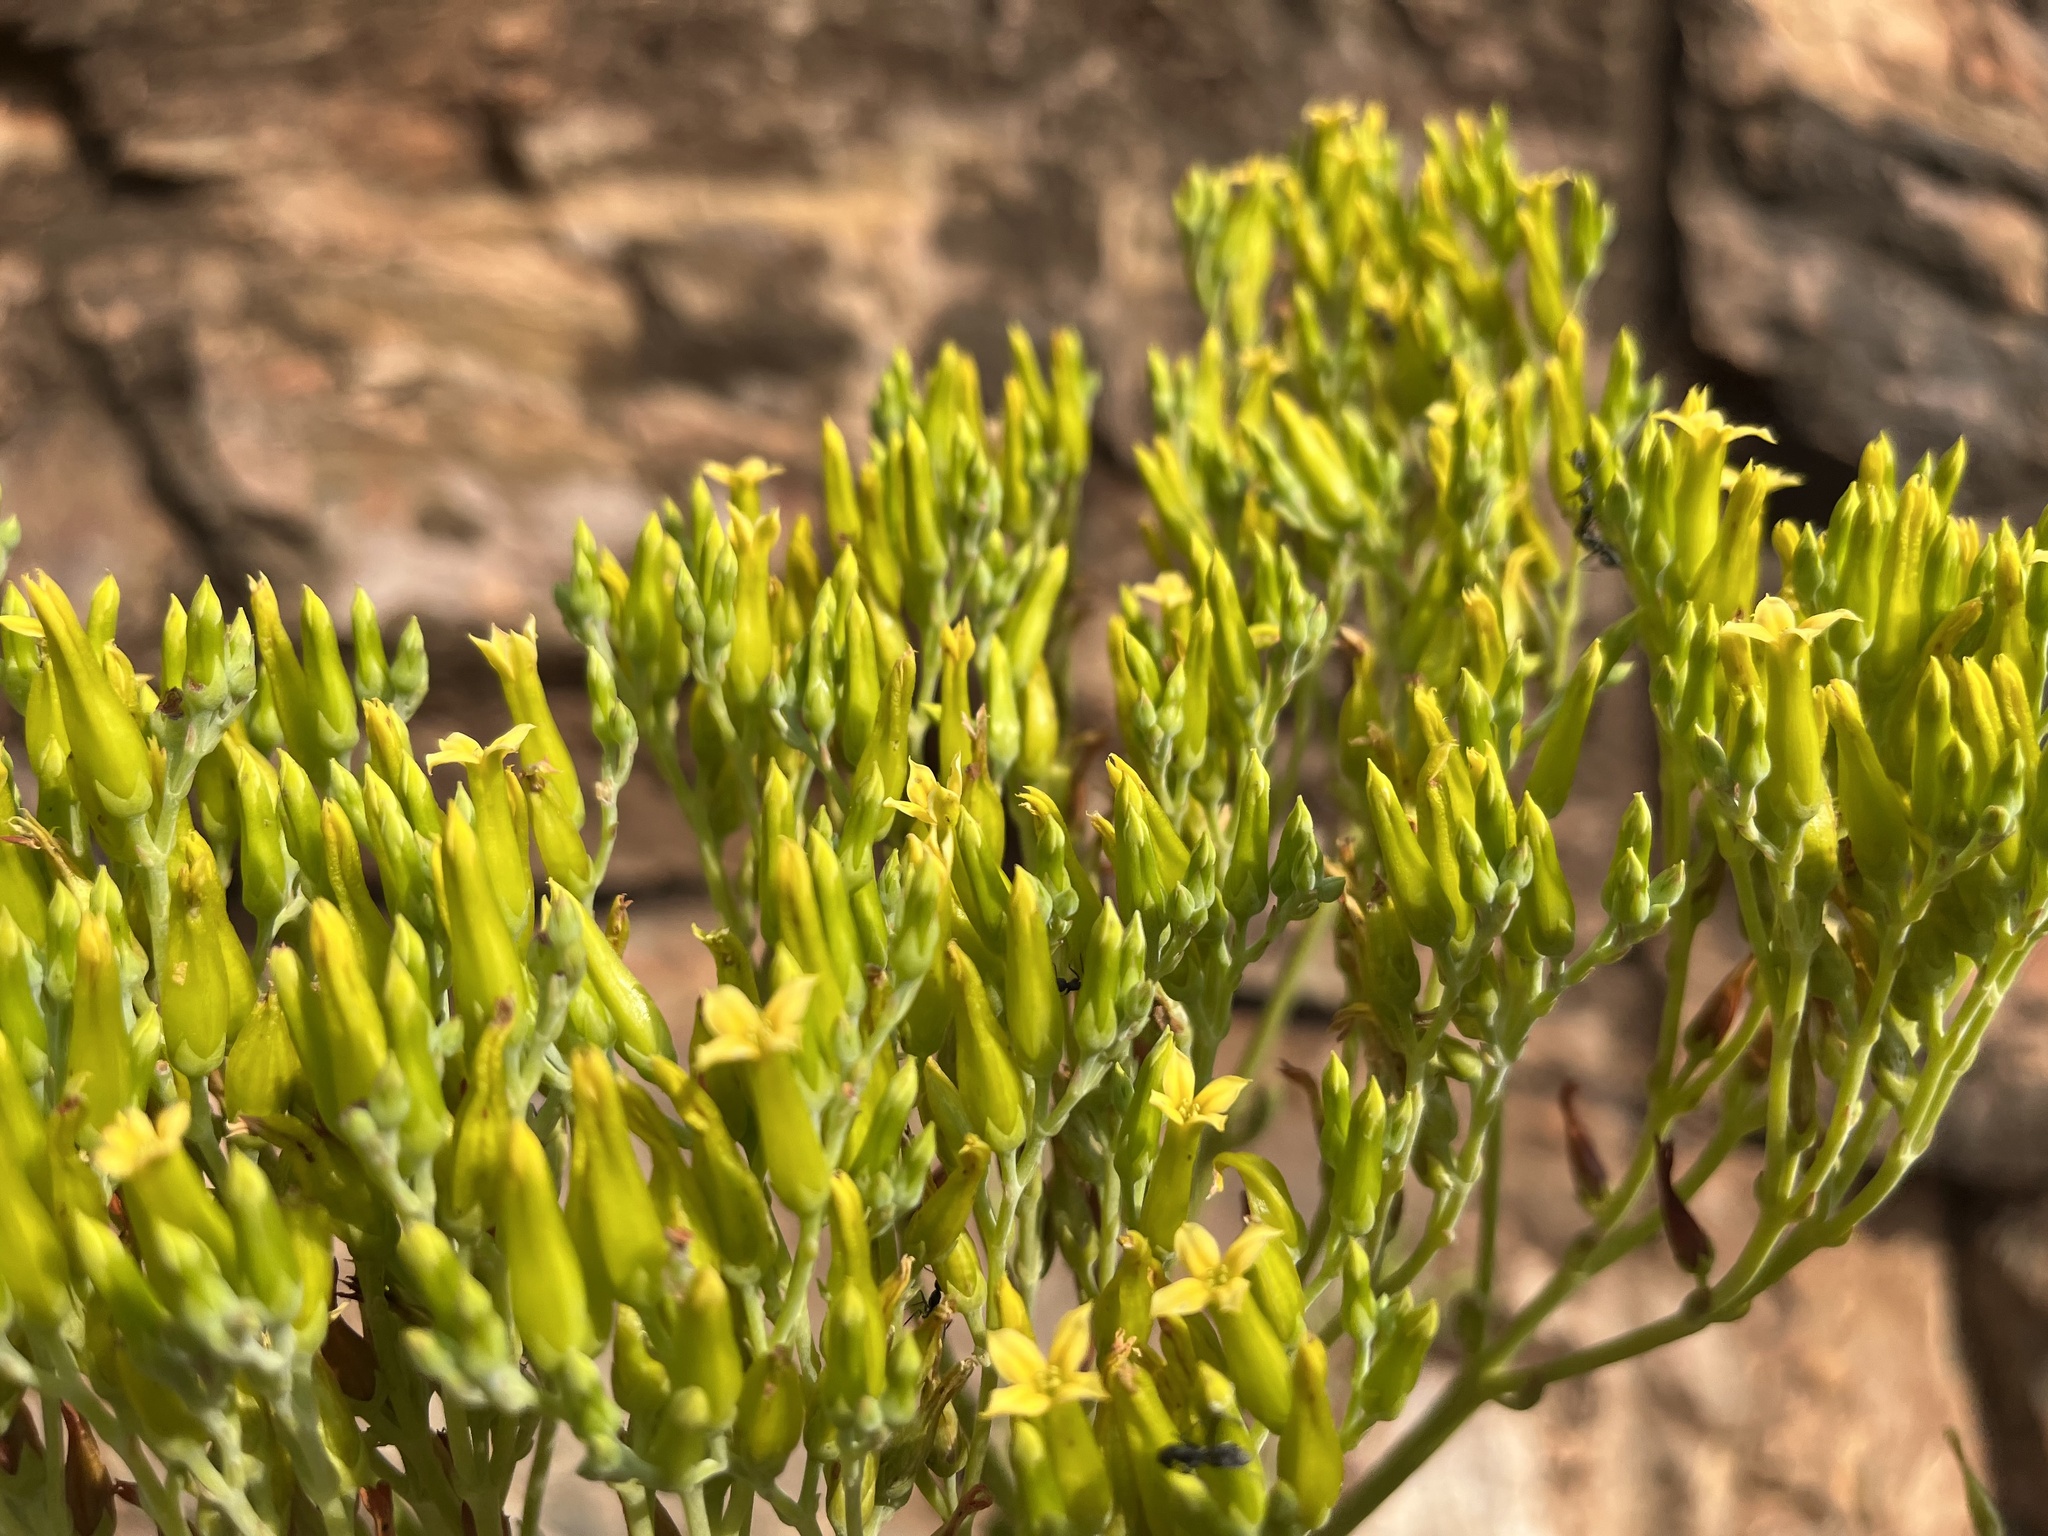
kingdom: Plantae
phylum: Tracheophyta
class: Magnoliopsida
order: Saxifragales
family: Crassulaceae
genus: Kalanchoe
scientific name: Kalanchoe paniculata
